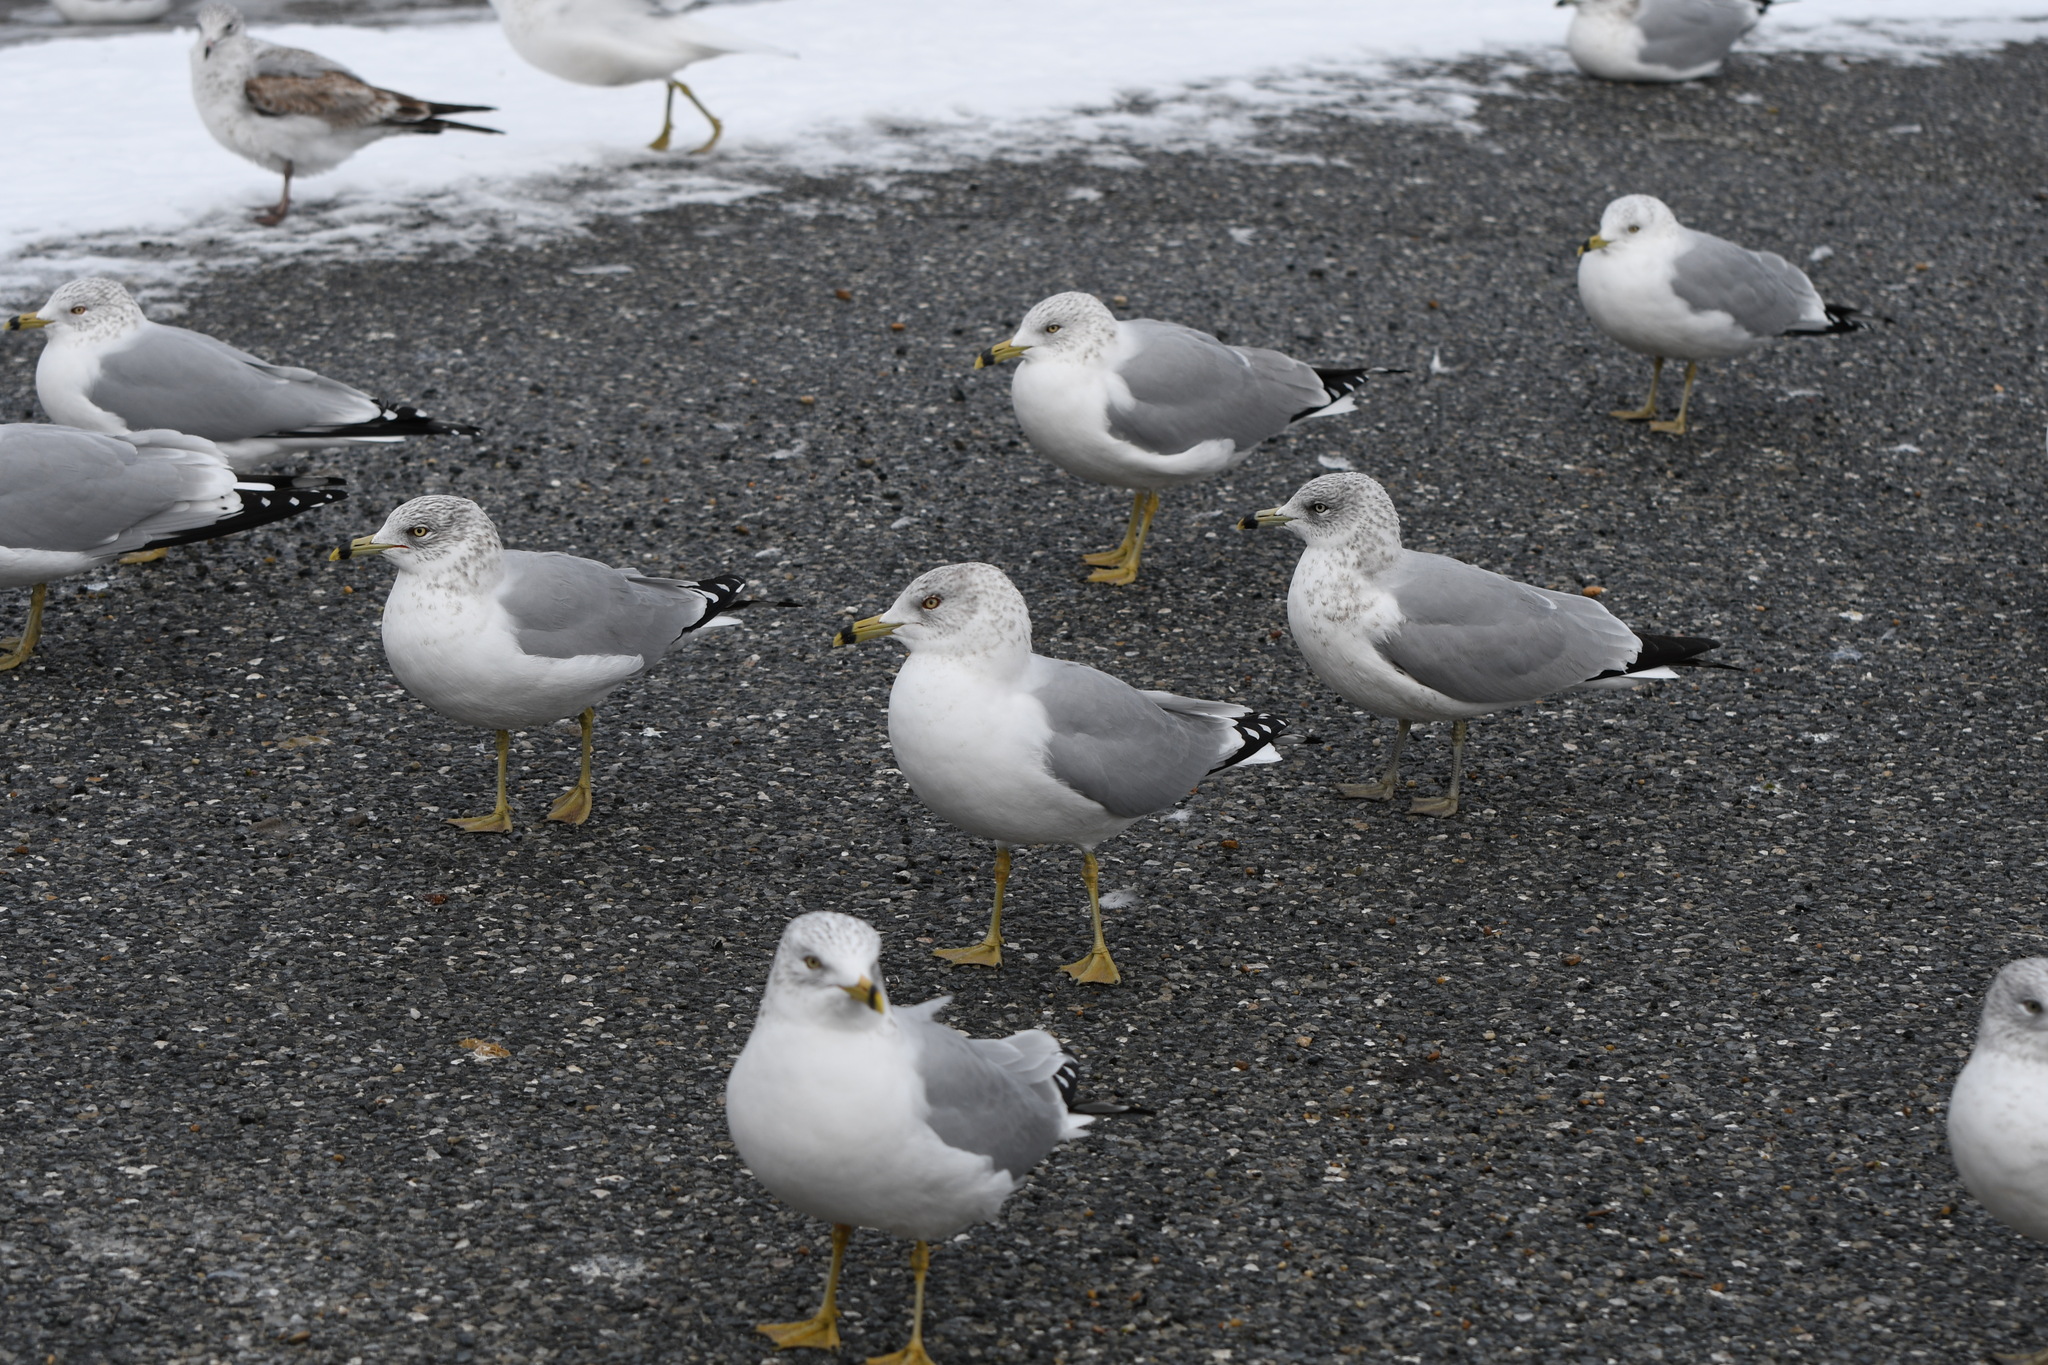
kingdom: Animalia
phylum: Chordata
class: Aves
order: Charadriiformes
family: Laridae
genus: Larus
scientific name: Larus delawarensis
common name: Ring-billed gull
